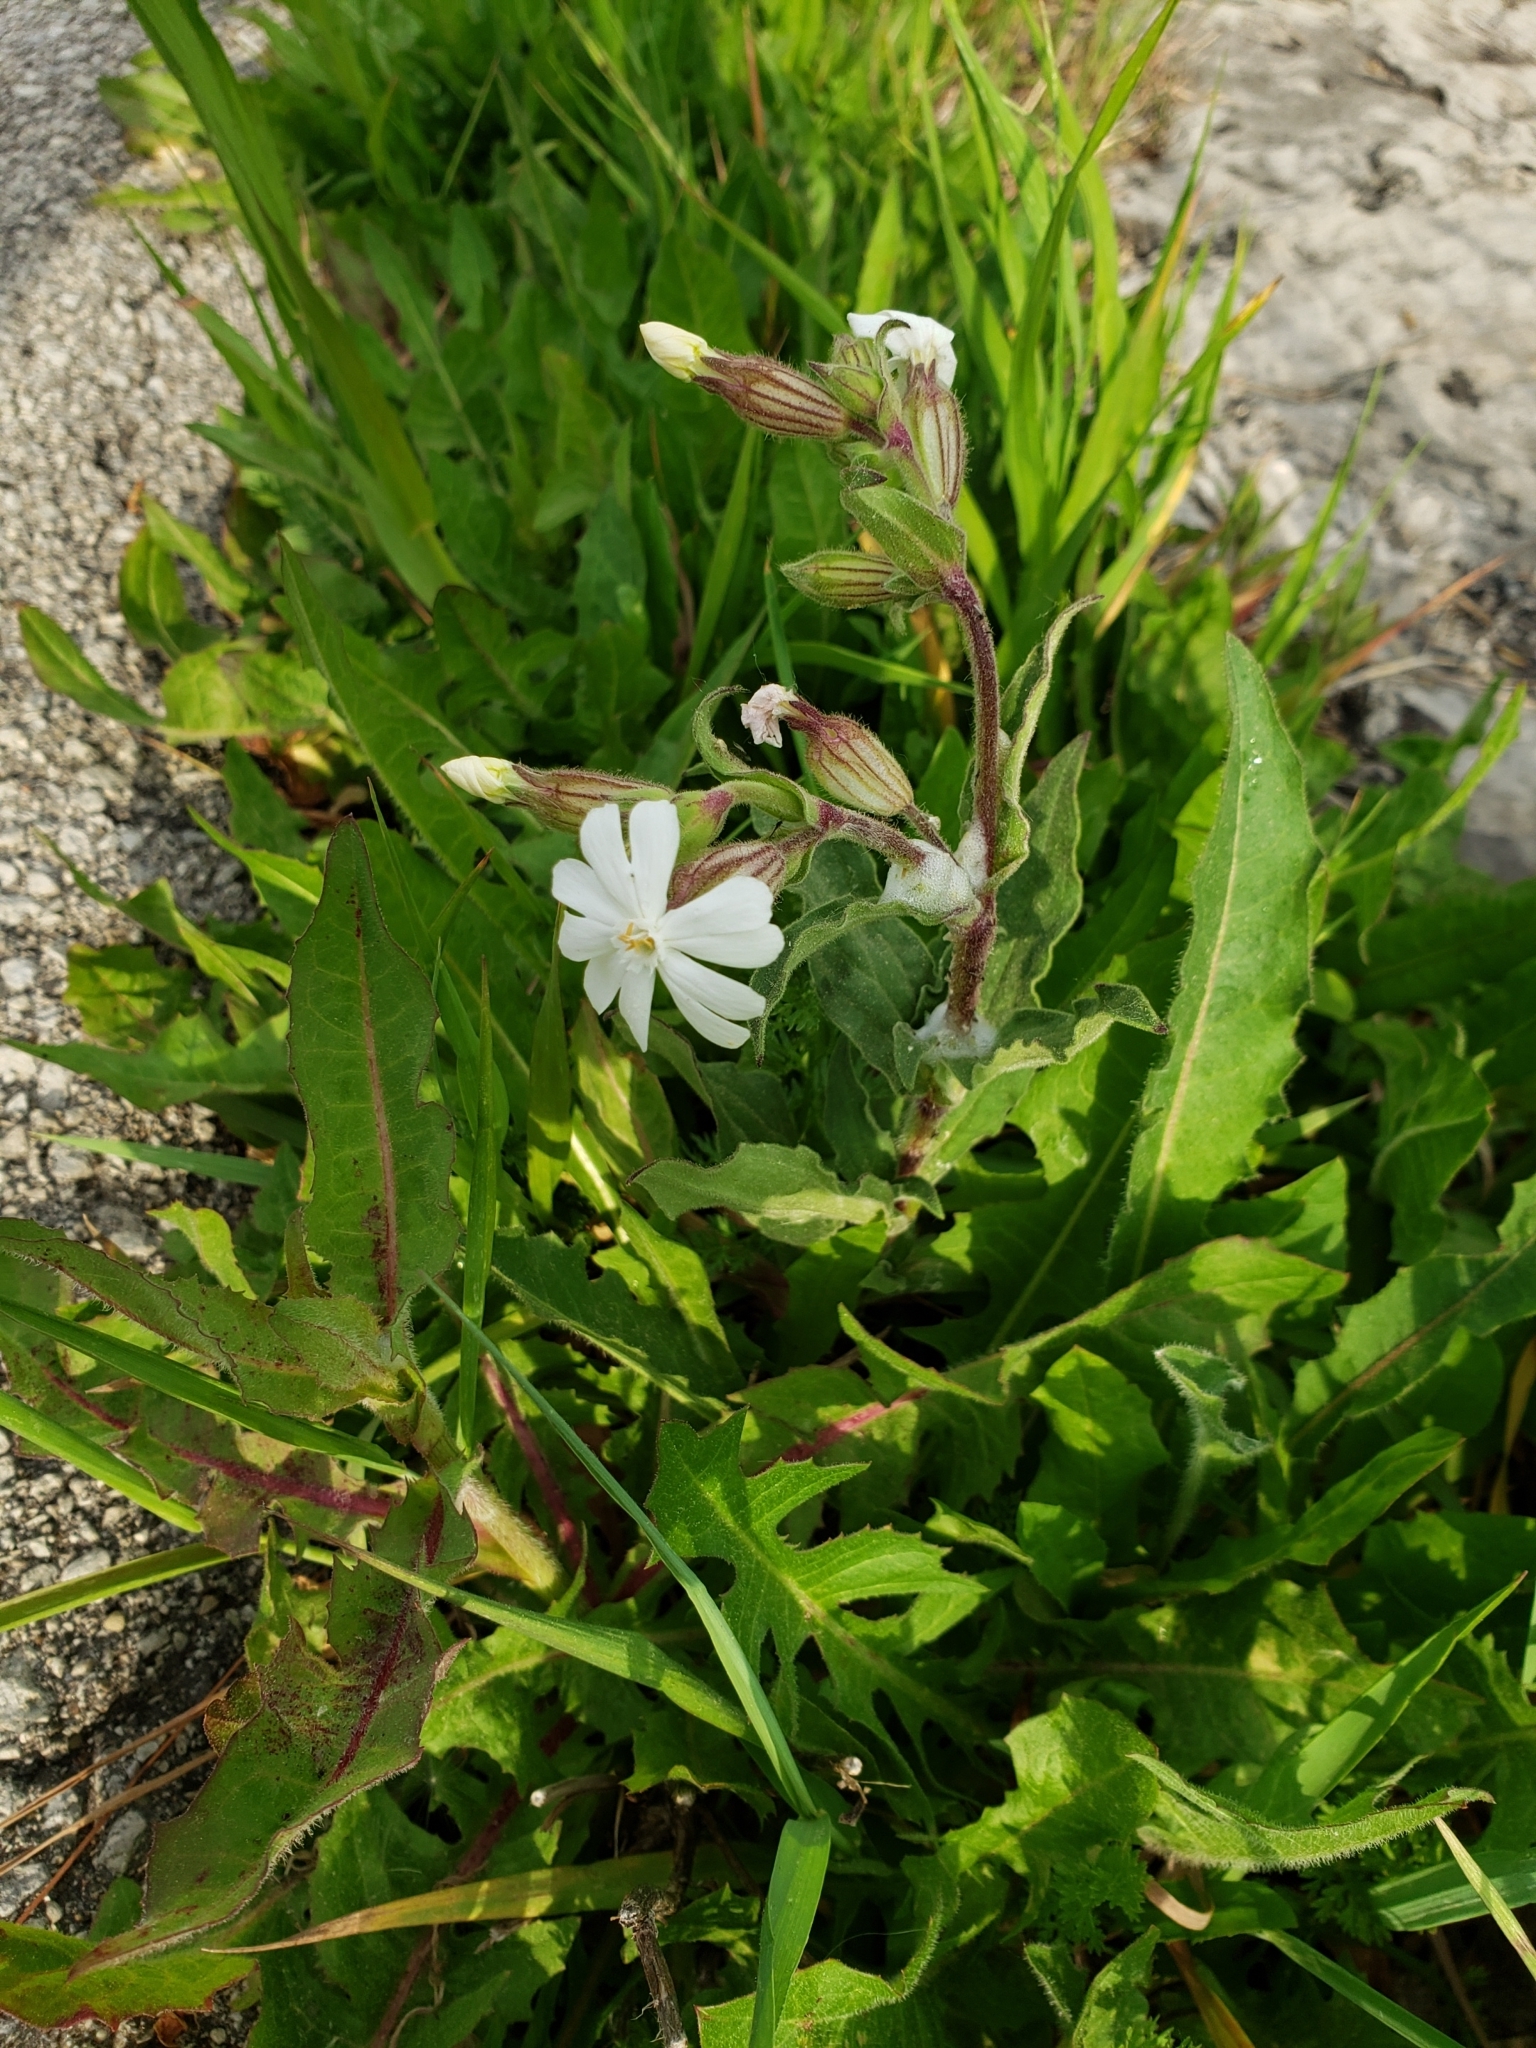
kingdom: Plantae
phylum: Tracheophyta
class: Magnoliopsida
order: Caryophyllales
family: Caryophyllaceae
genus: Silene
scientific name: Silene latifolia
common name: White campion
